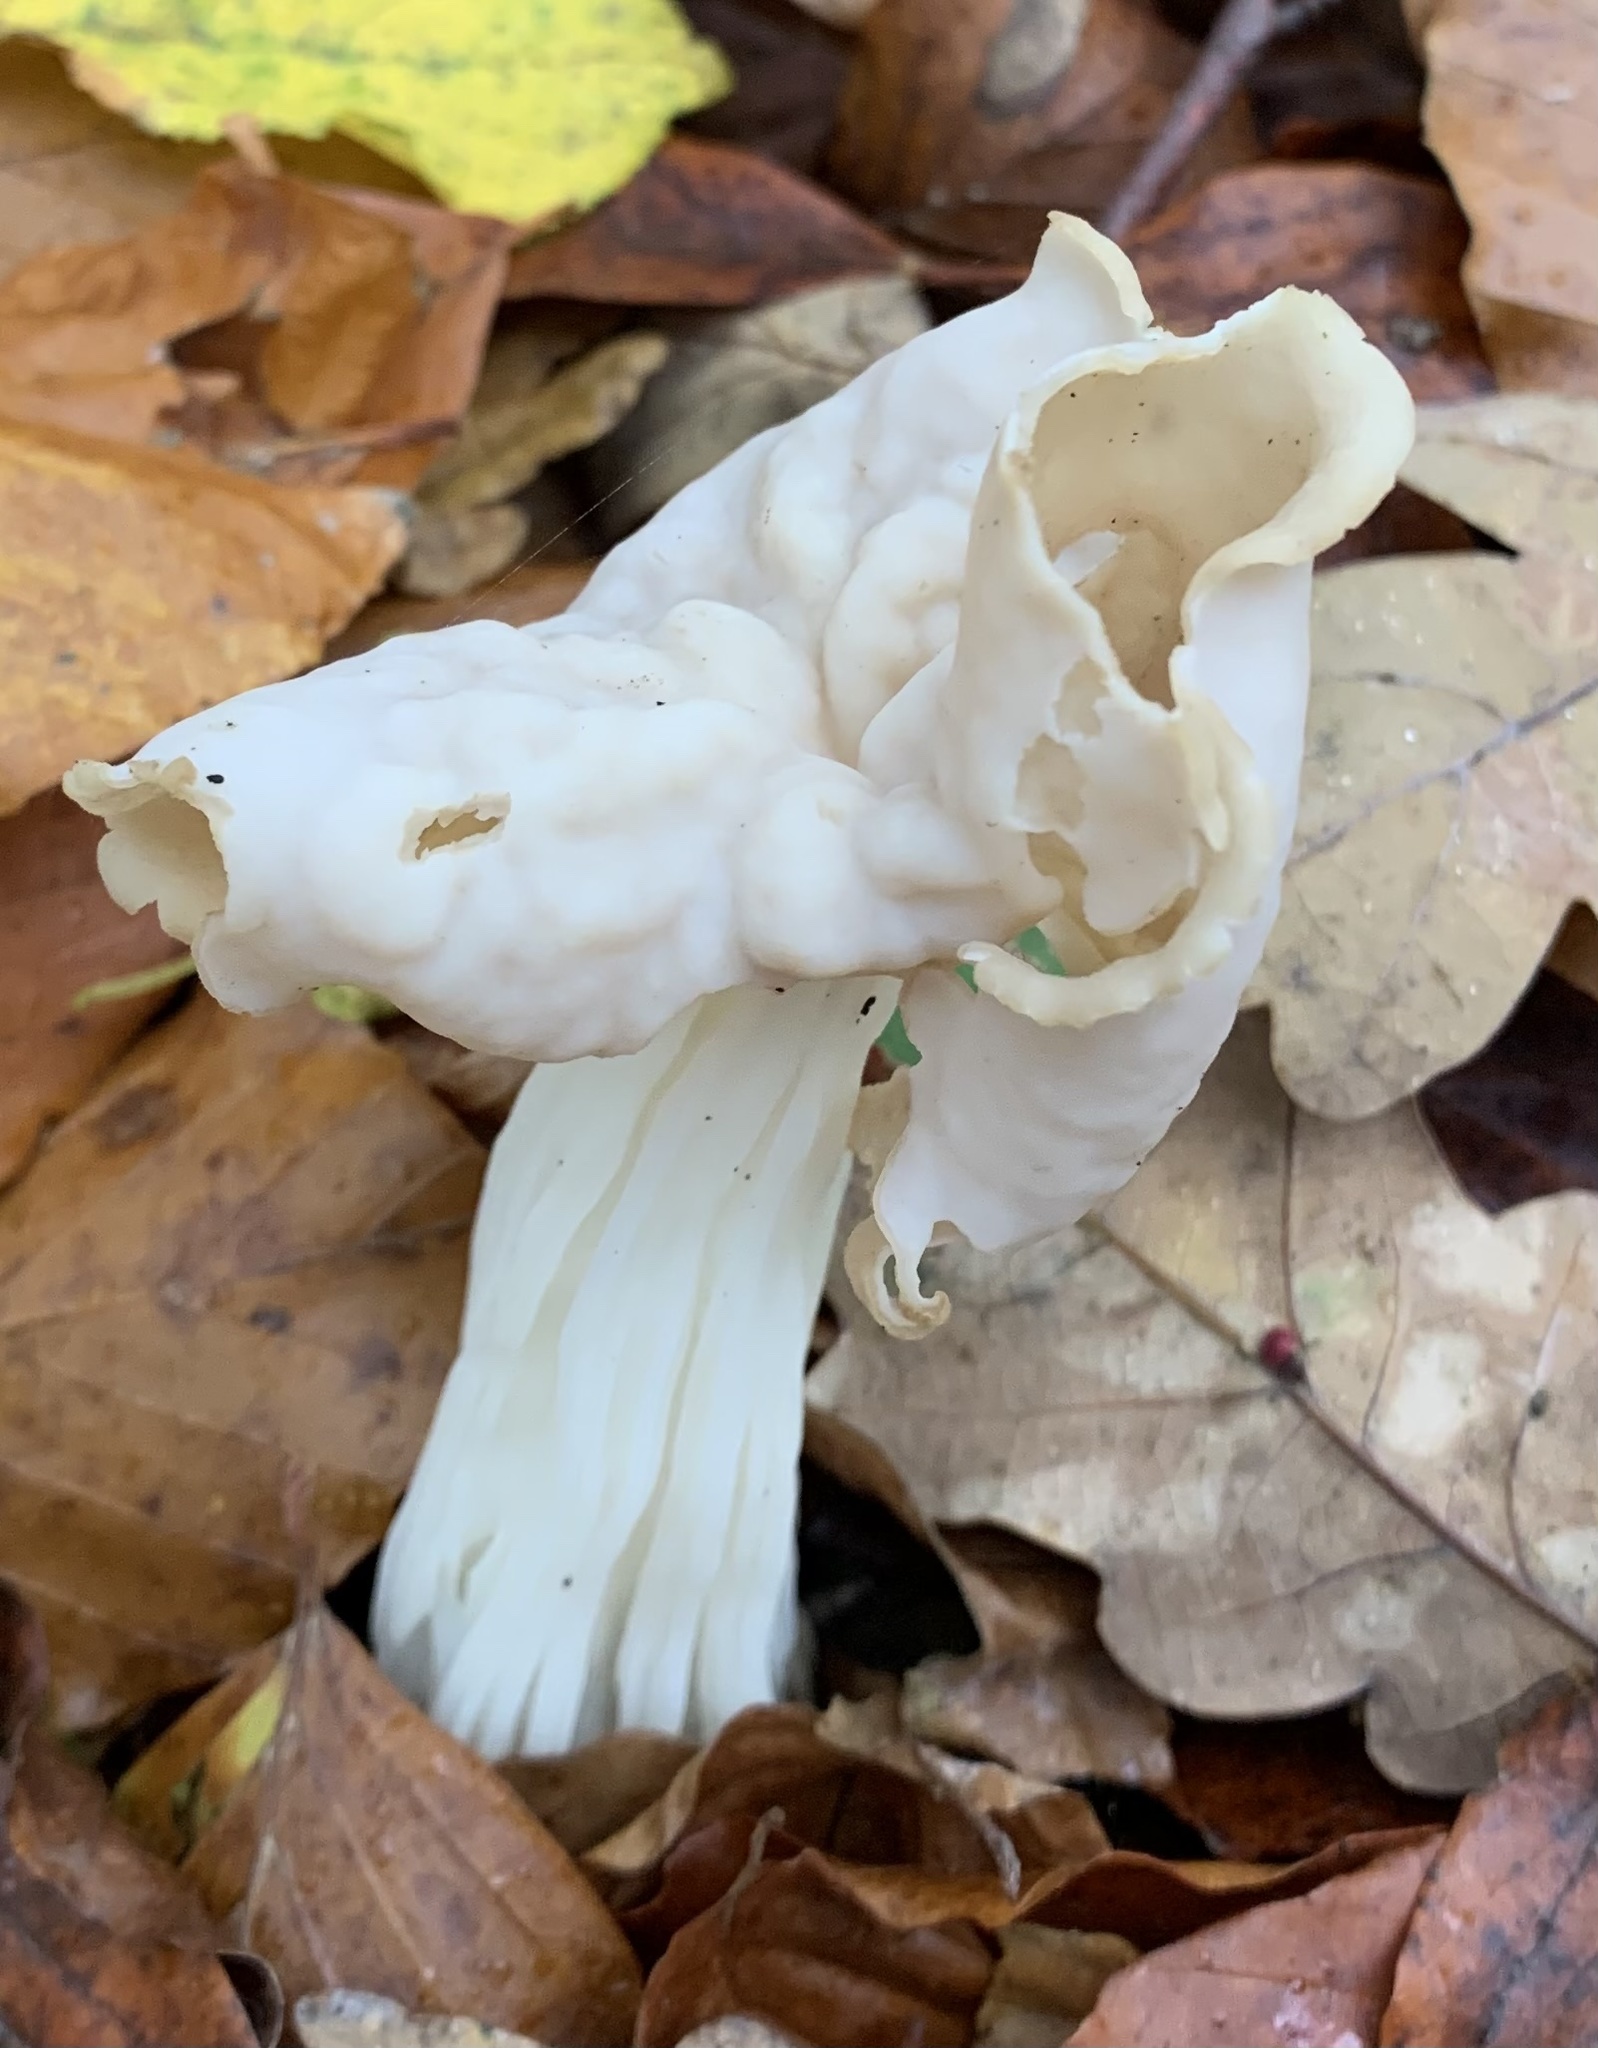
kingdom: Fungi
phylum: Ascomycota
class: Pezizomycetes
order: Pezizales
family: Helvellaceae
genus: Helvella
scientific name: Helvella crispa
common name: White saddle
